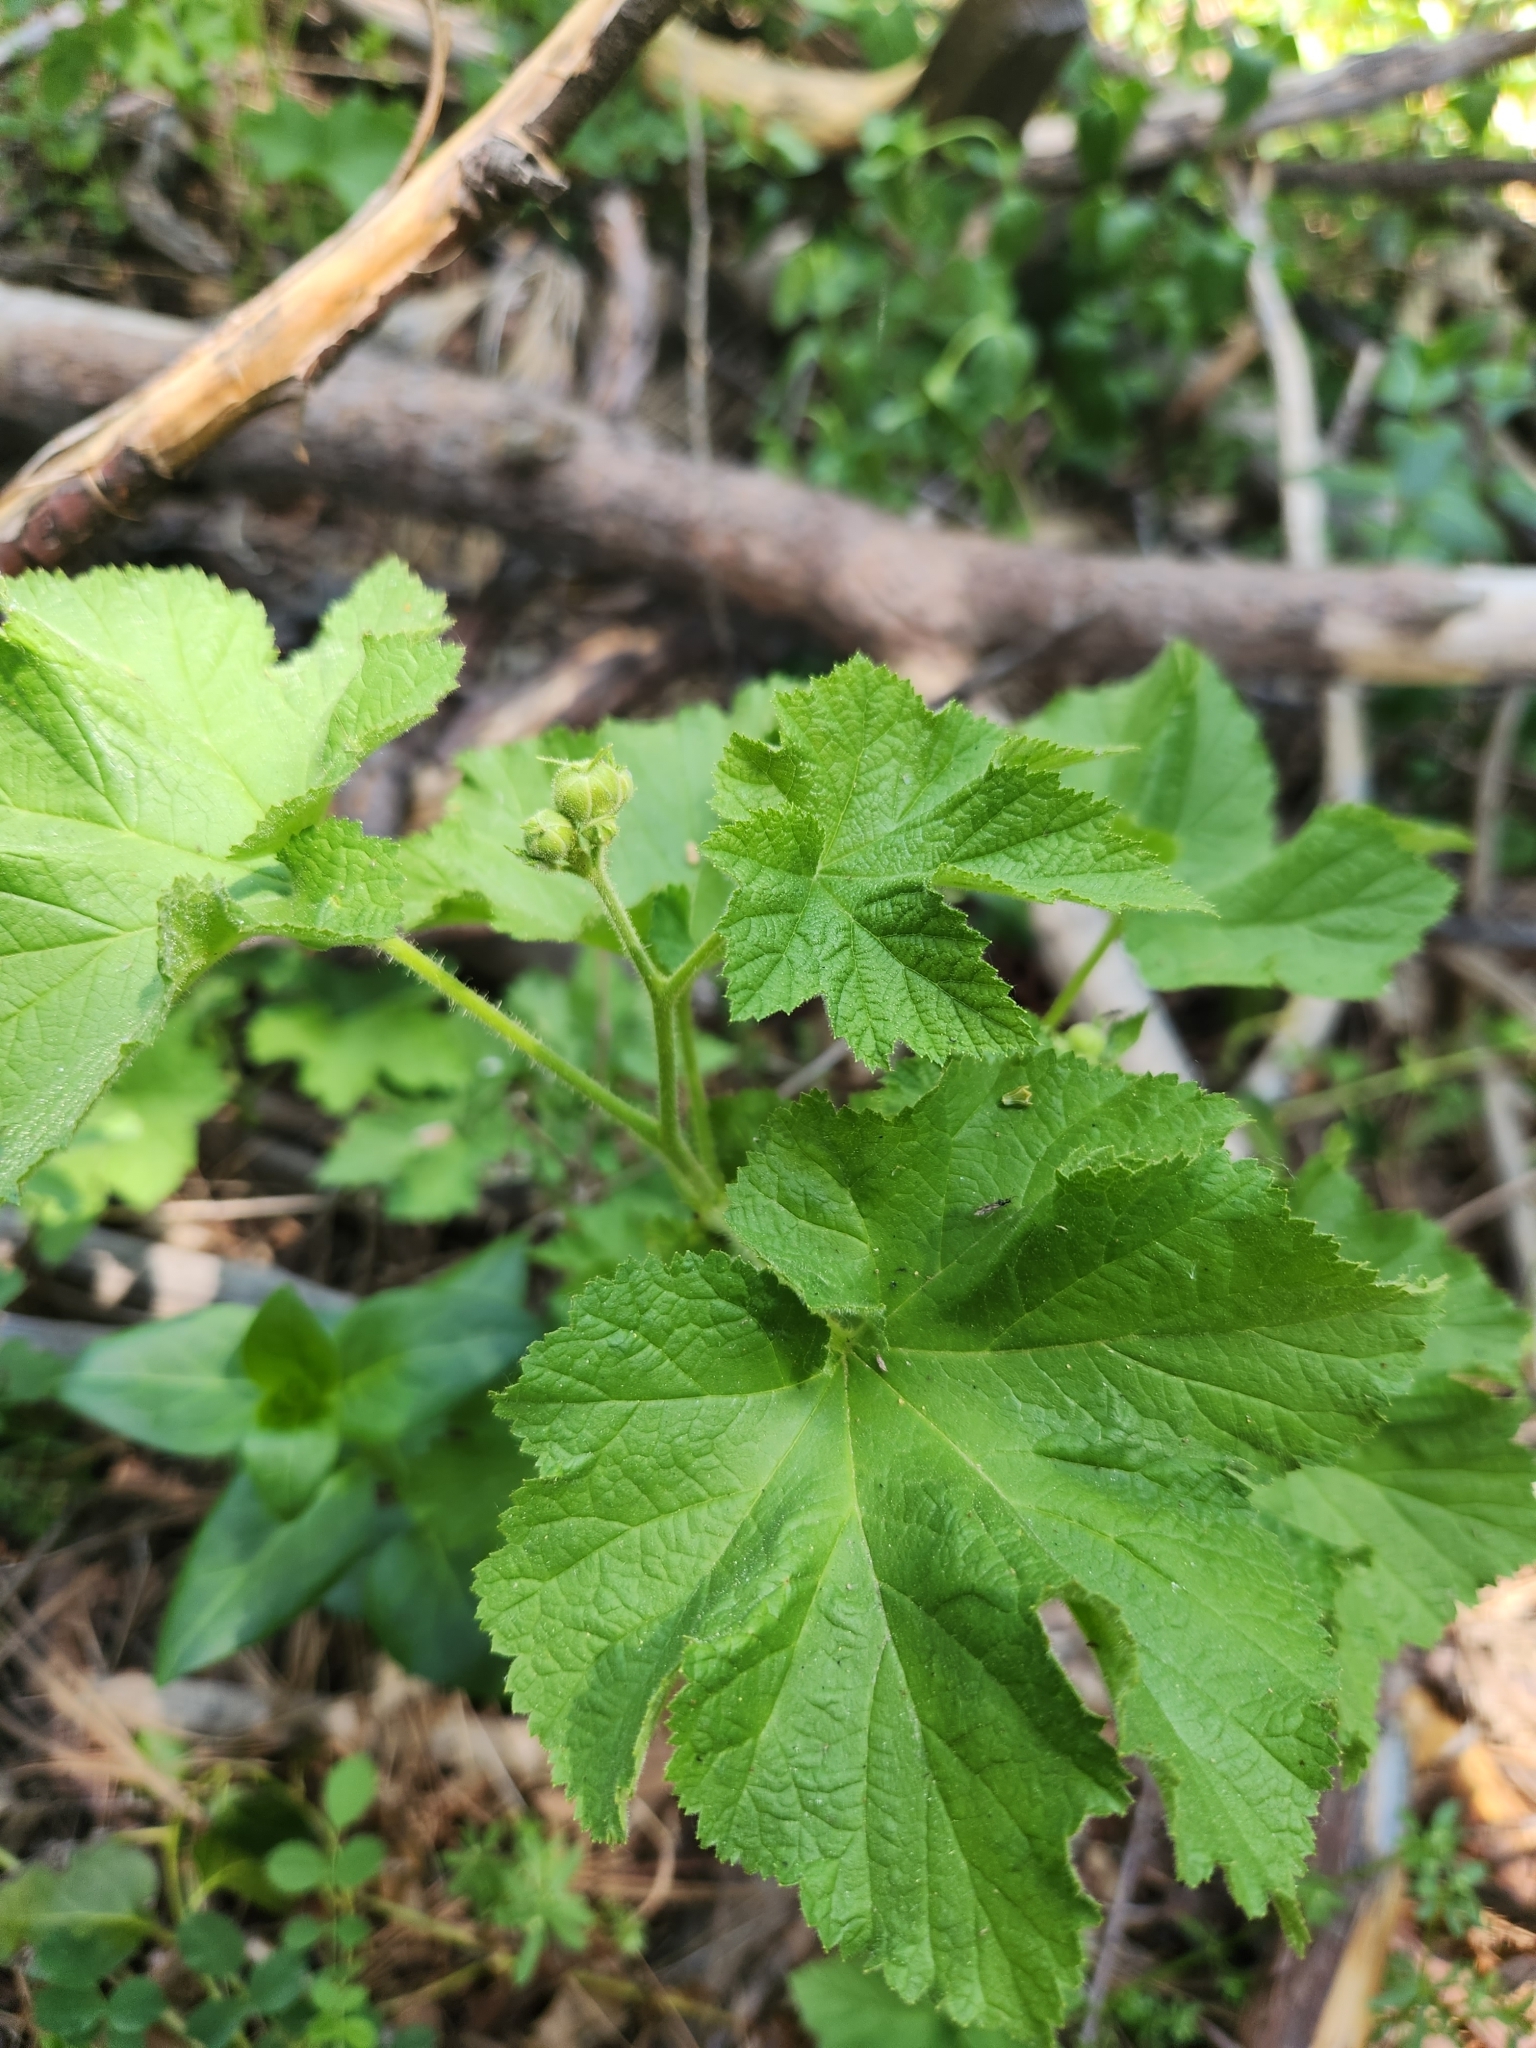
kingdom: Plantae
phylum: Tracheophyta
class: Magnoliopsida
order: Rosales
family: Rosaceae
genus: Rubus
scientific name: Rubus parviflorus
